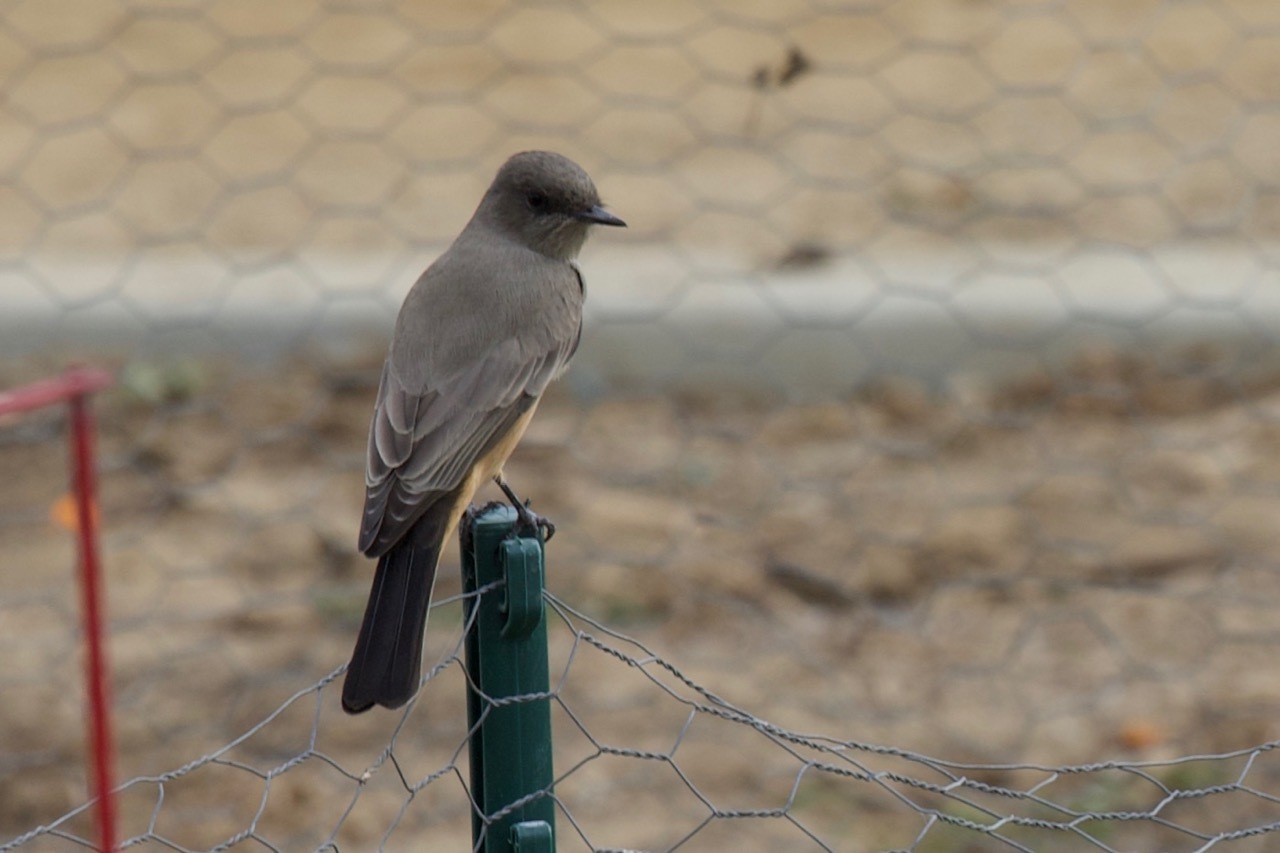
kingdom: Animalia
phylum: Chordata
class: Aves
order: Passeriformes
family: Tyrannidae
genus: Sayornis
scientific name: Sayornis saya
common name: Say's phoebe
